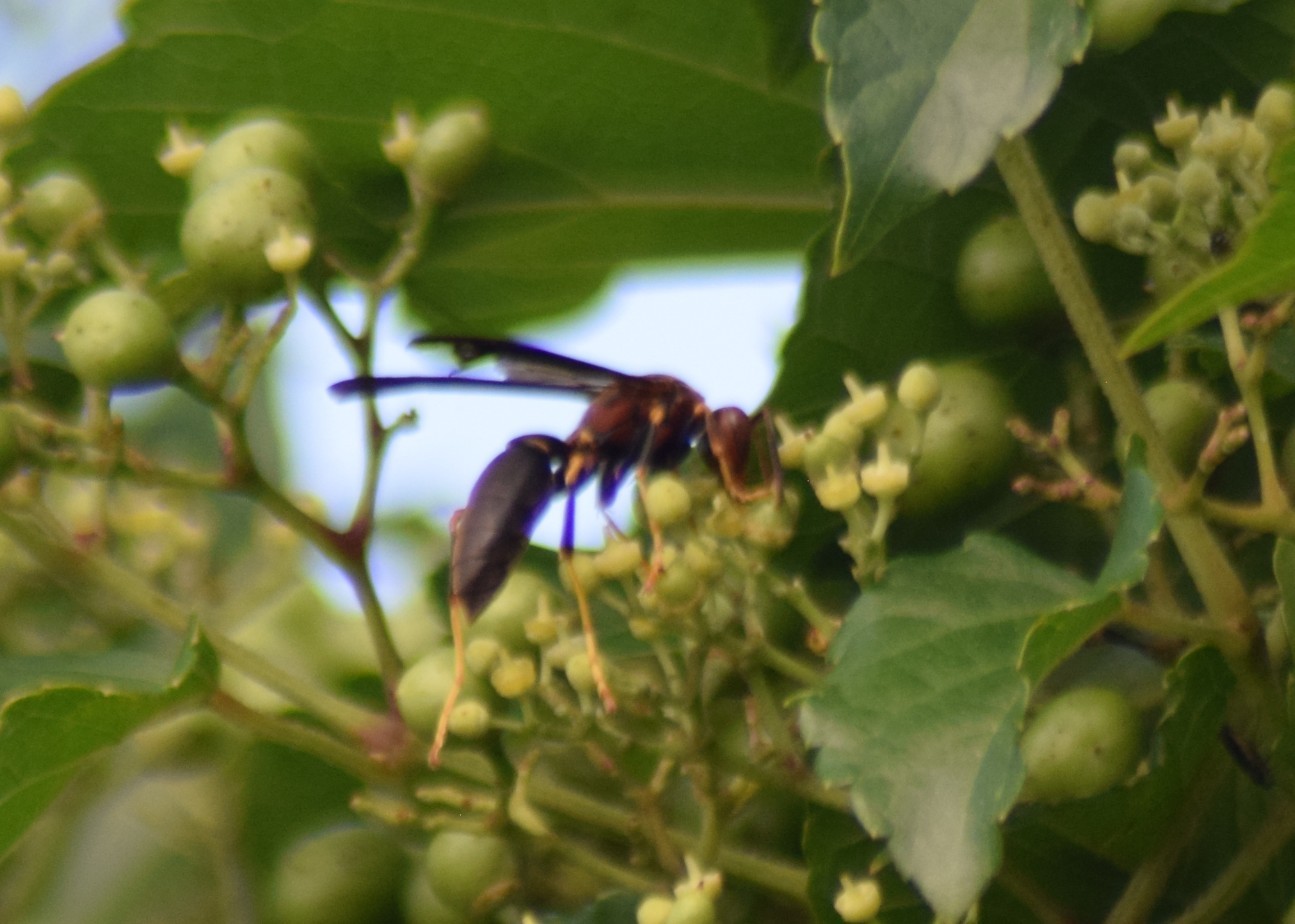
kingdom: Animalia
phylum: Arthropoda
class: Insecta
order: Hymenoptera
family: Eumenidae
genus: Polistes
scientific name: Polistes
